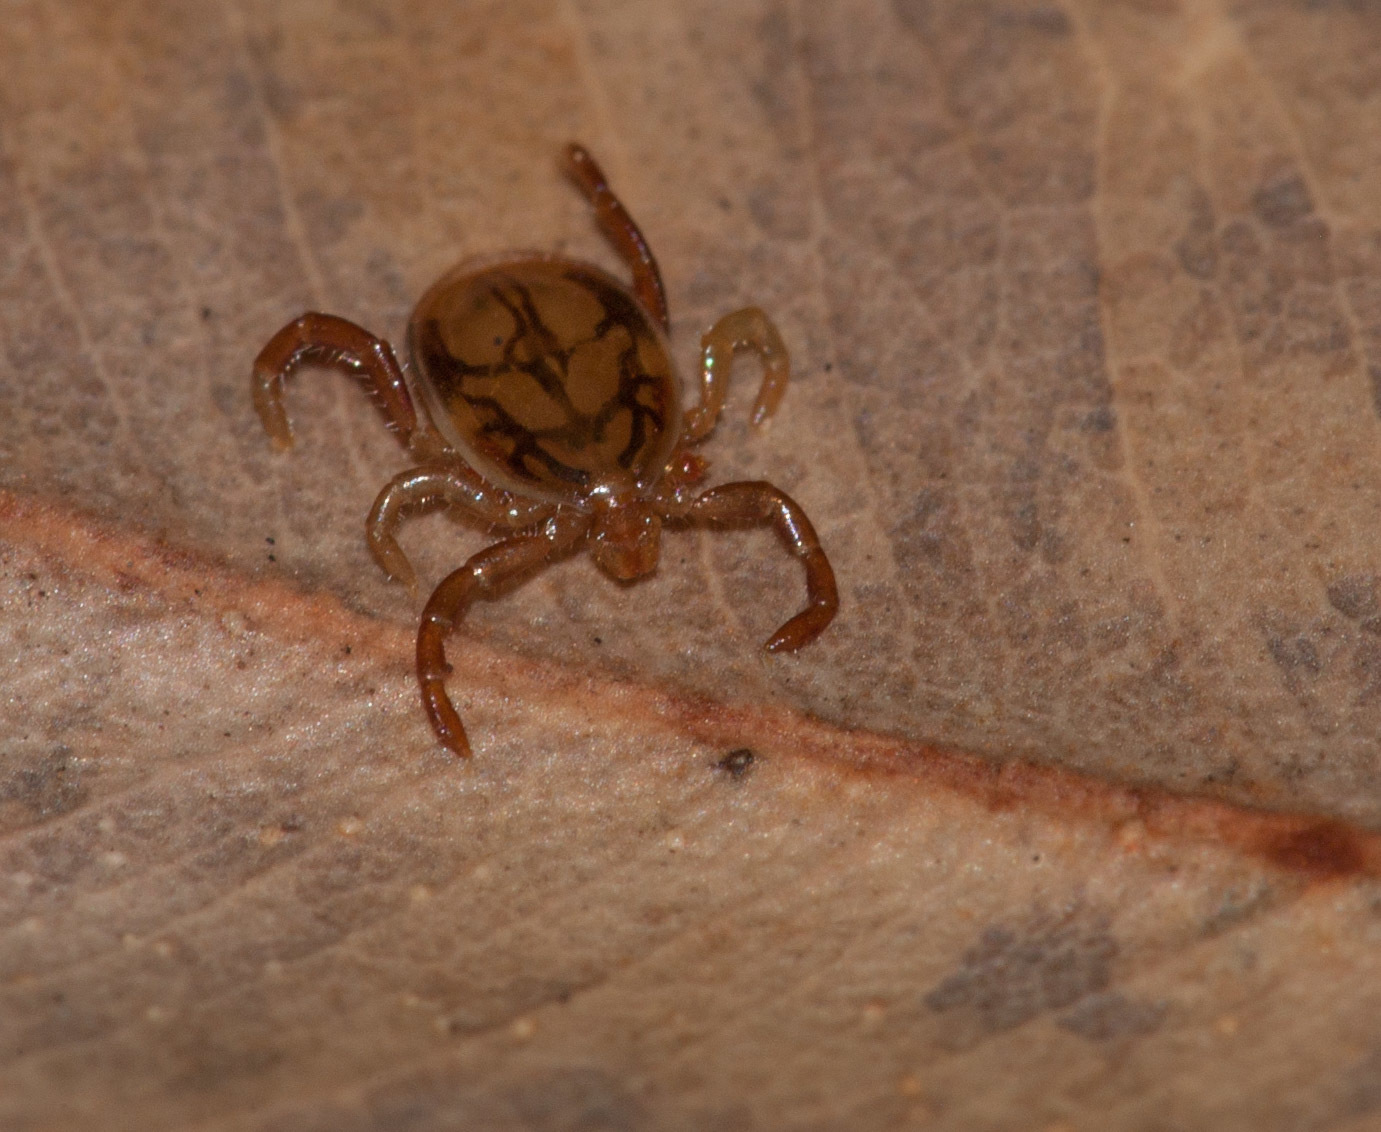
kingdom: Animalia
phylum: Arthropoda
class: Arachnida
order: Ixodida
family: Ixodidae
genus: Ixodes
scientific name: Ixodes holocyclus
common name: Australian paralysis tick
